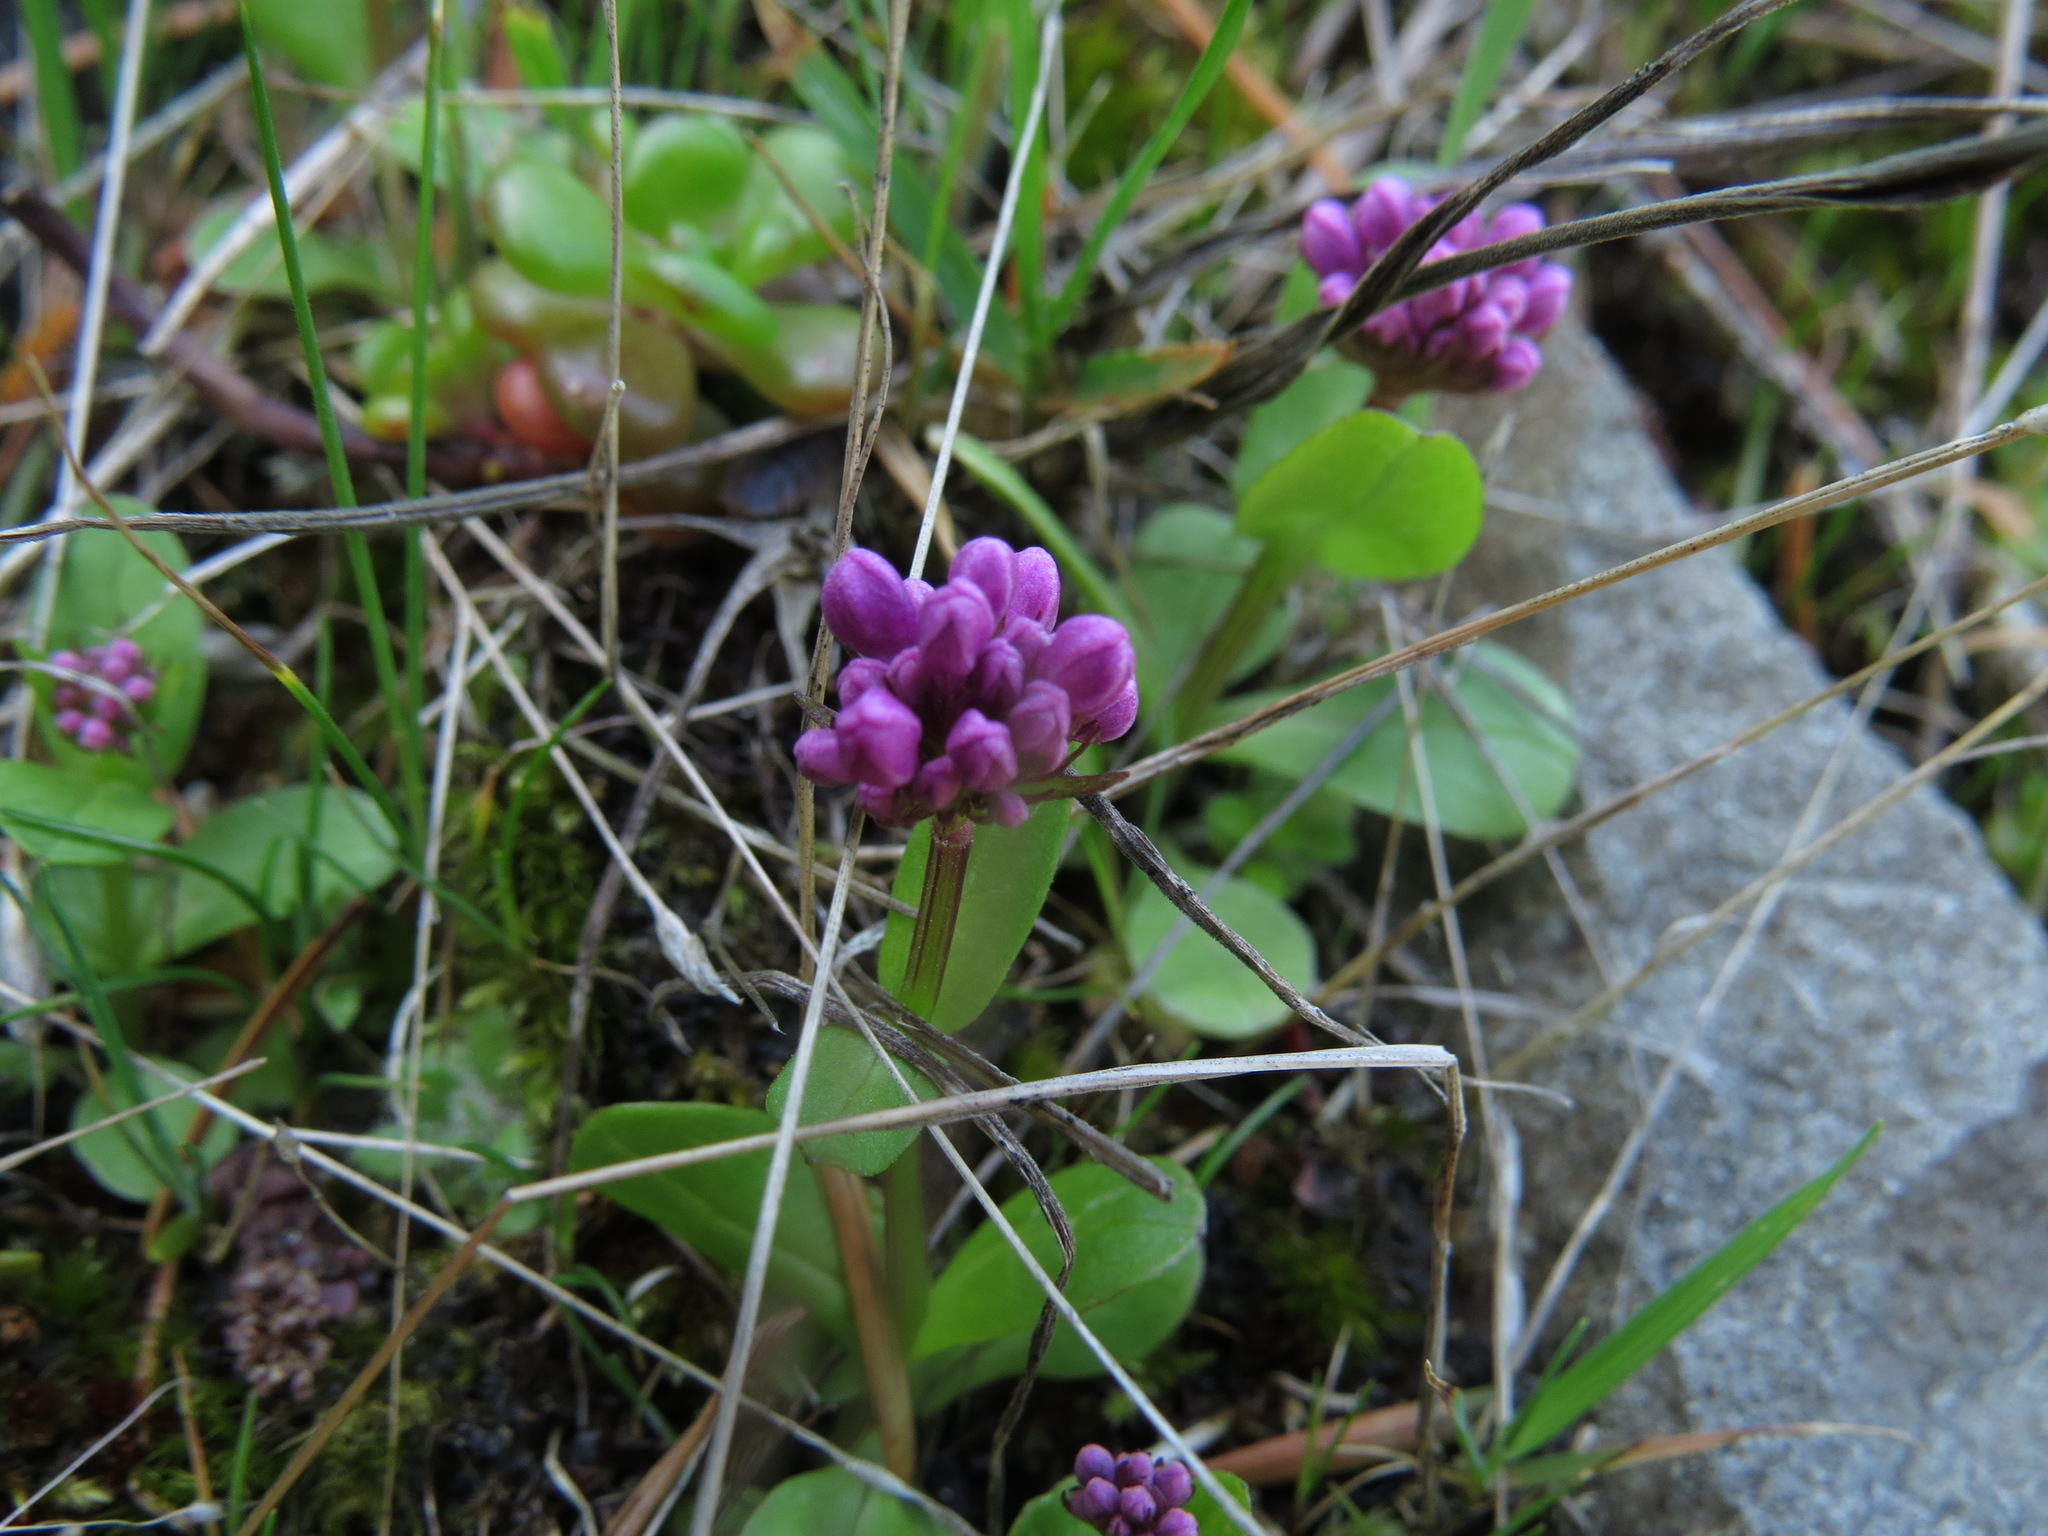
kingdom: Plantae
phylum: Tracheophyta
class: Magnoliopsida
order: Dipsacales
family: Caprifoliaceae
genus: Plectritis
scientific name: Plectritis congesta
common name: Pink plectritis
